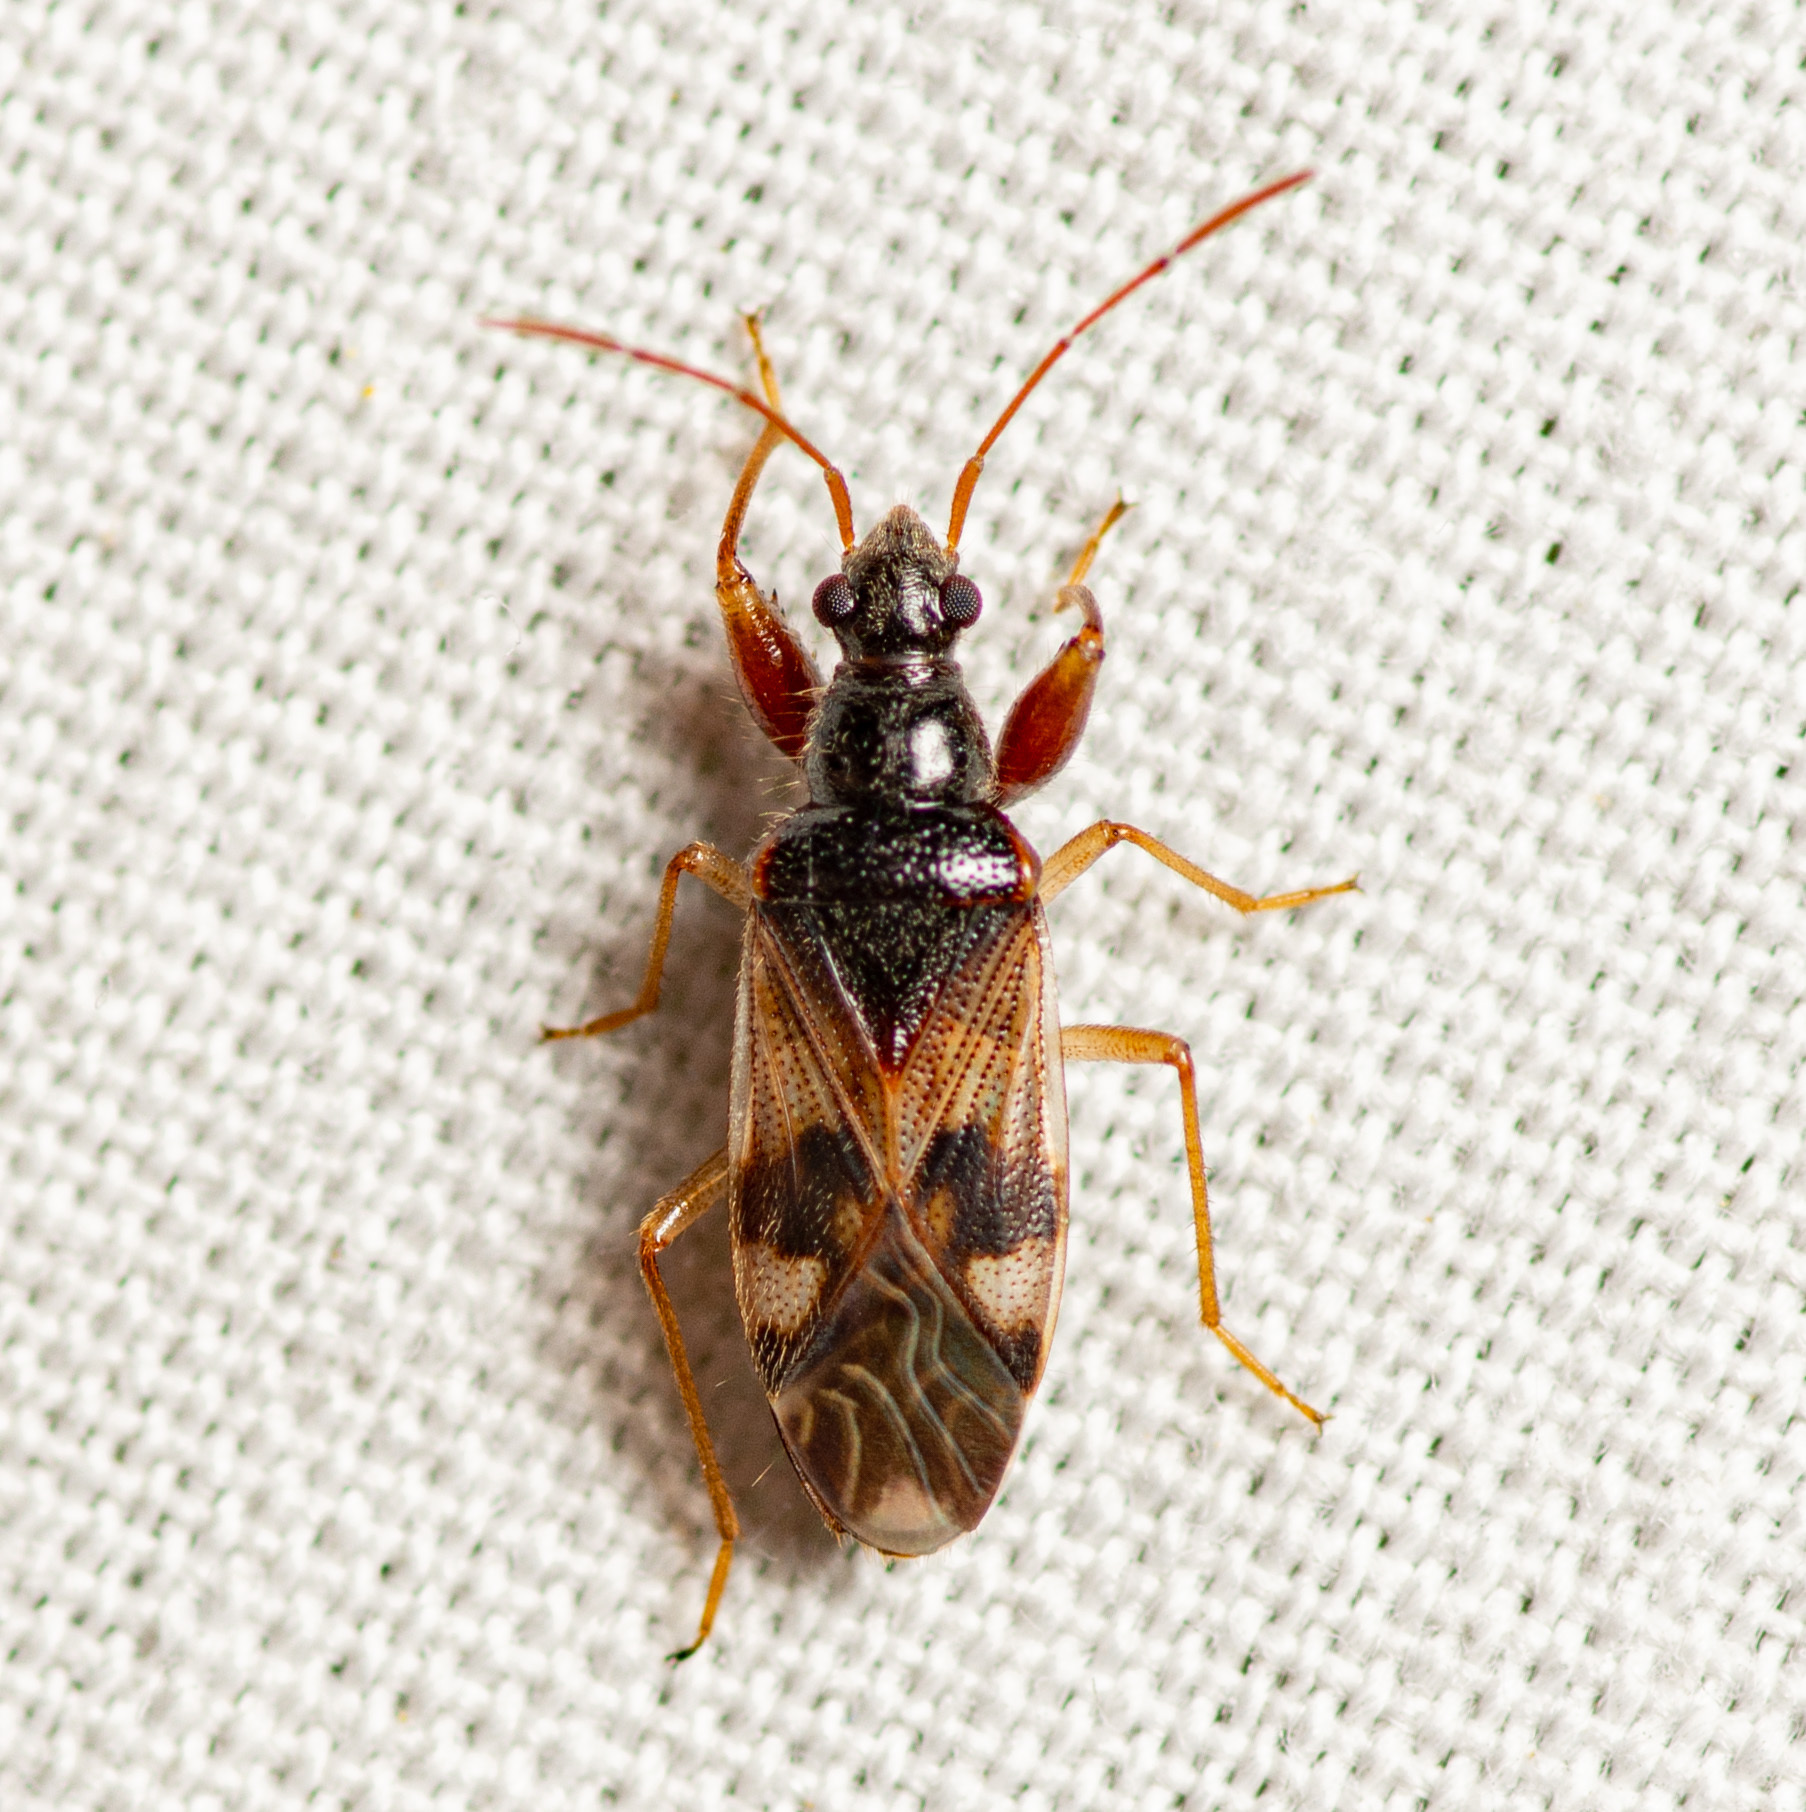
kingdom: Animalia
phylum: Arthropoda
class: Insecta
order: Hemiptera
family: Rhyparochromidae
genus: Pseudopamera
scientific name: Pseudopamera nitidula
